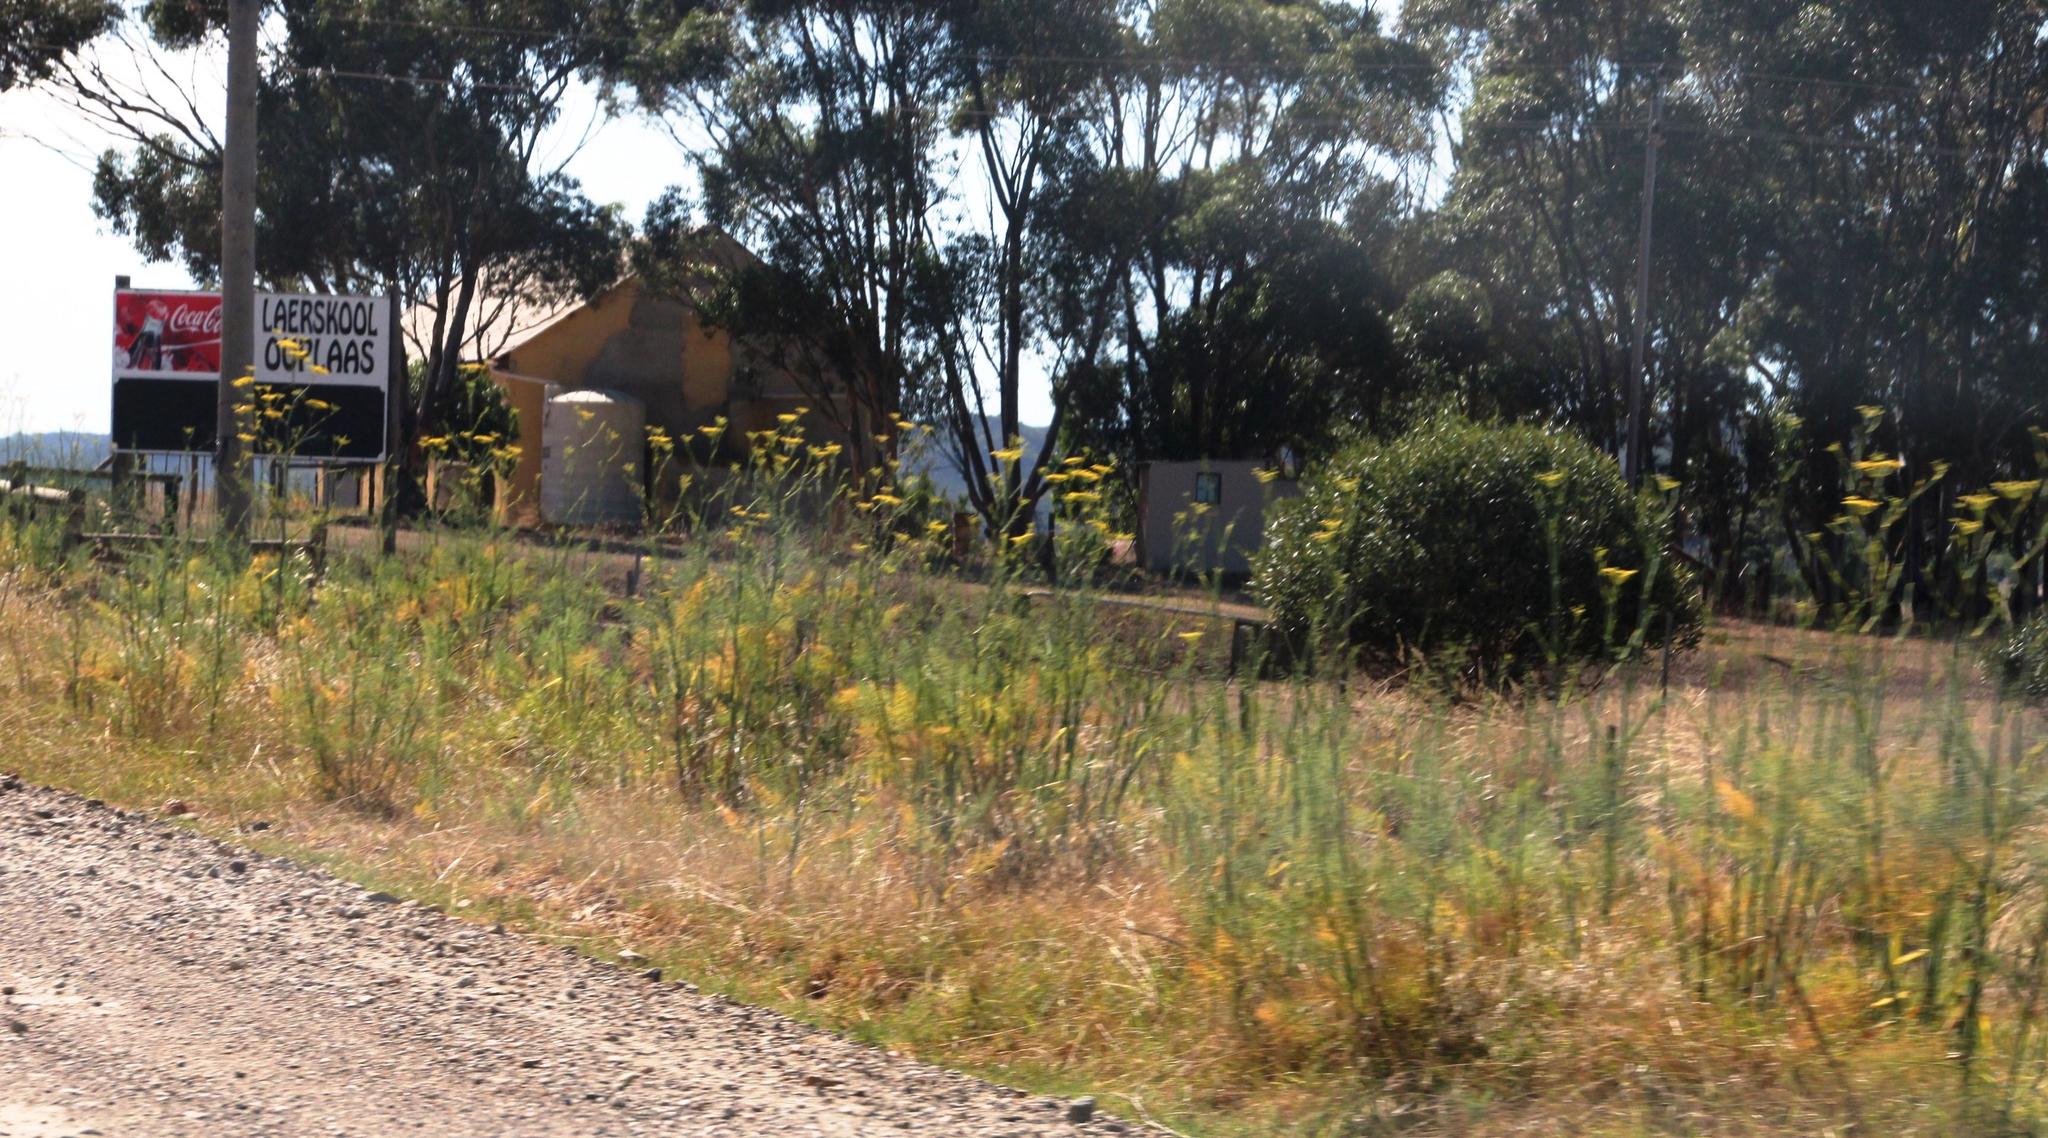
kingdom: Plantae
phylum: Tracheophyta
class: Magnoliopsida
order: Apiales
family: Apiaceae
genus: Foeniculum
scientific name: Foeniculum vulgare
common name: Fennel
